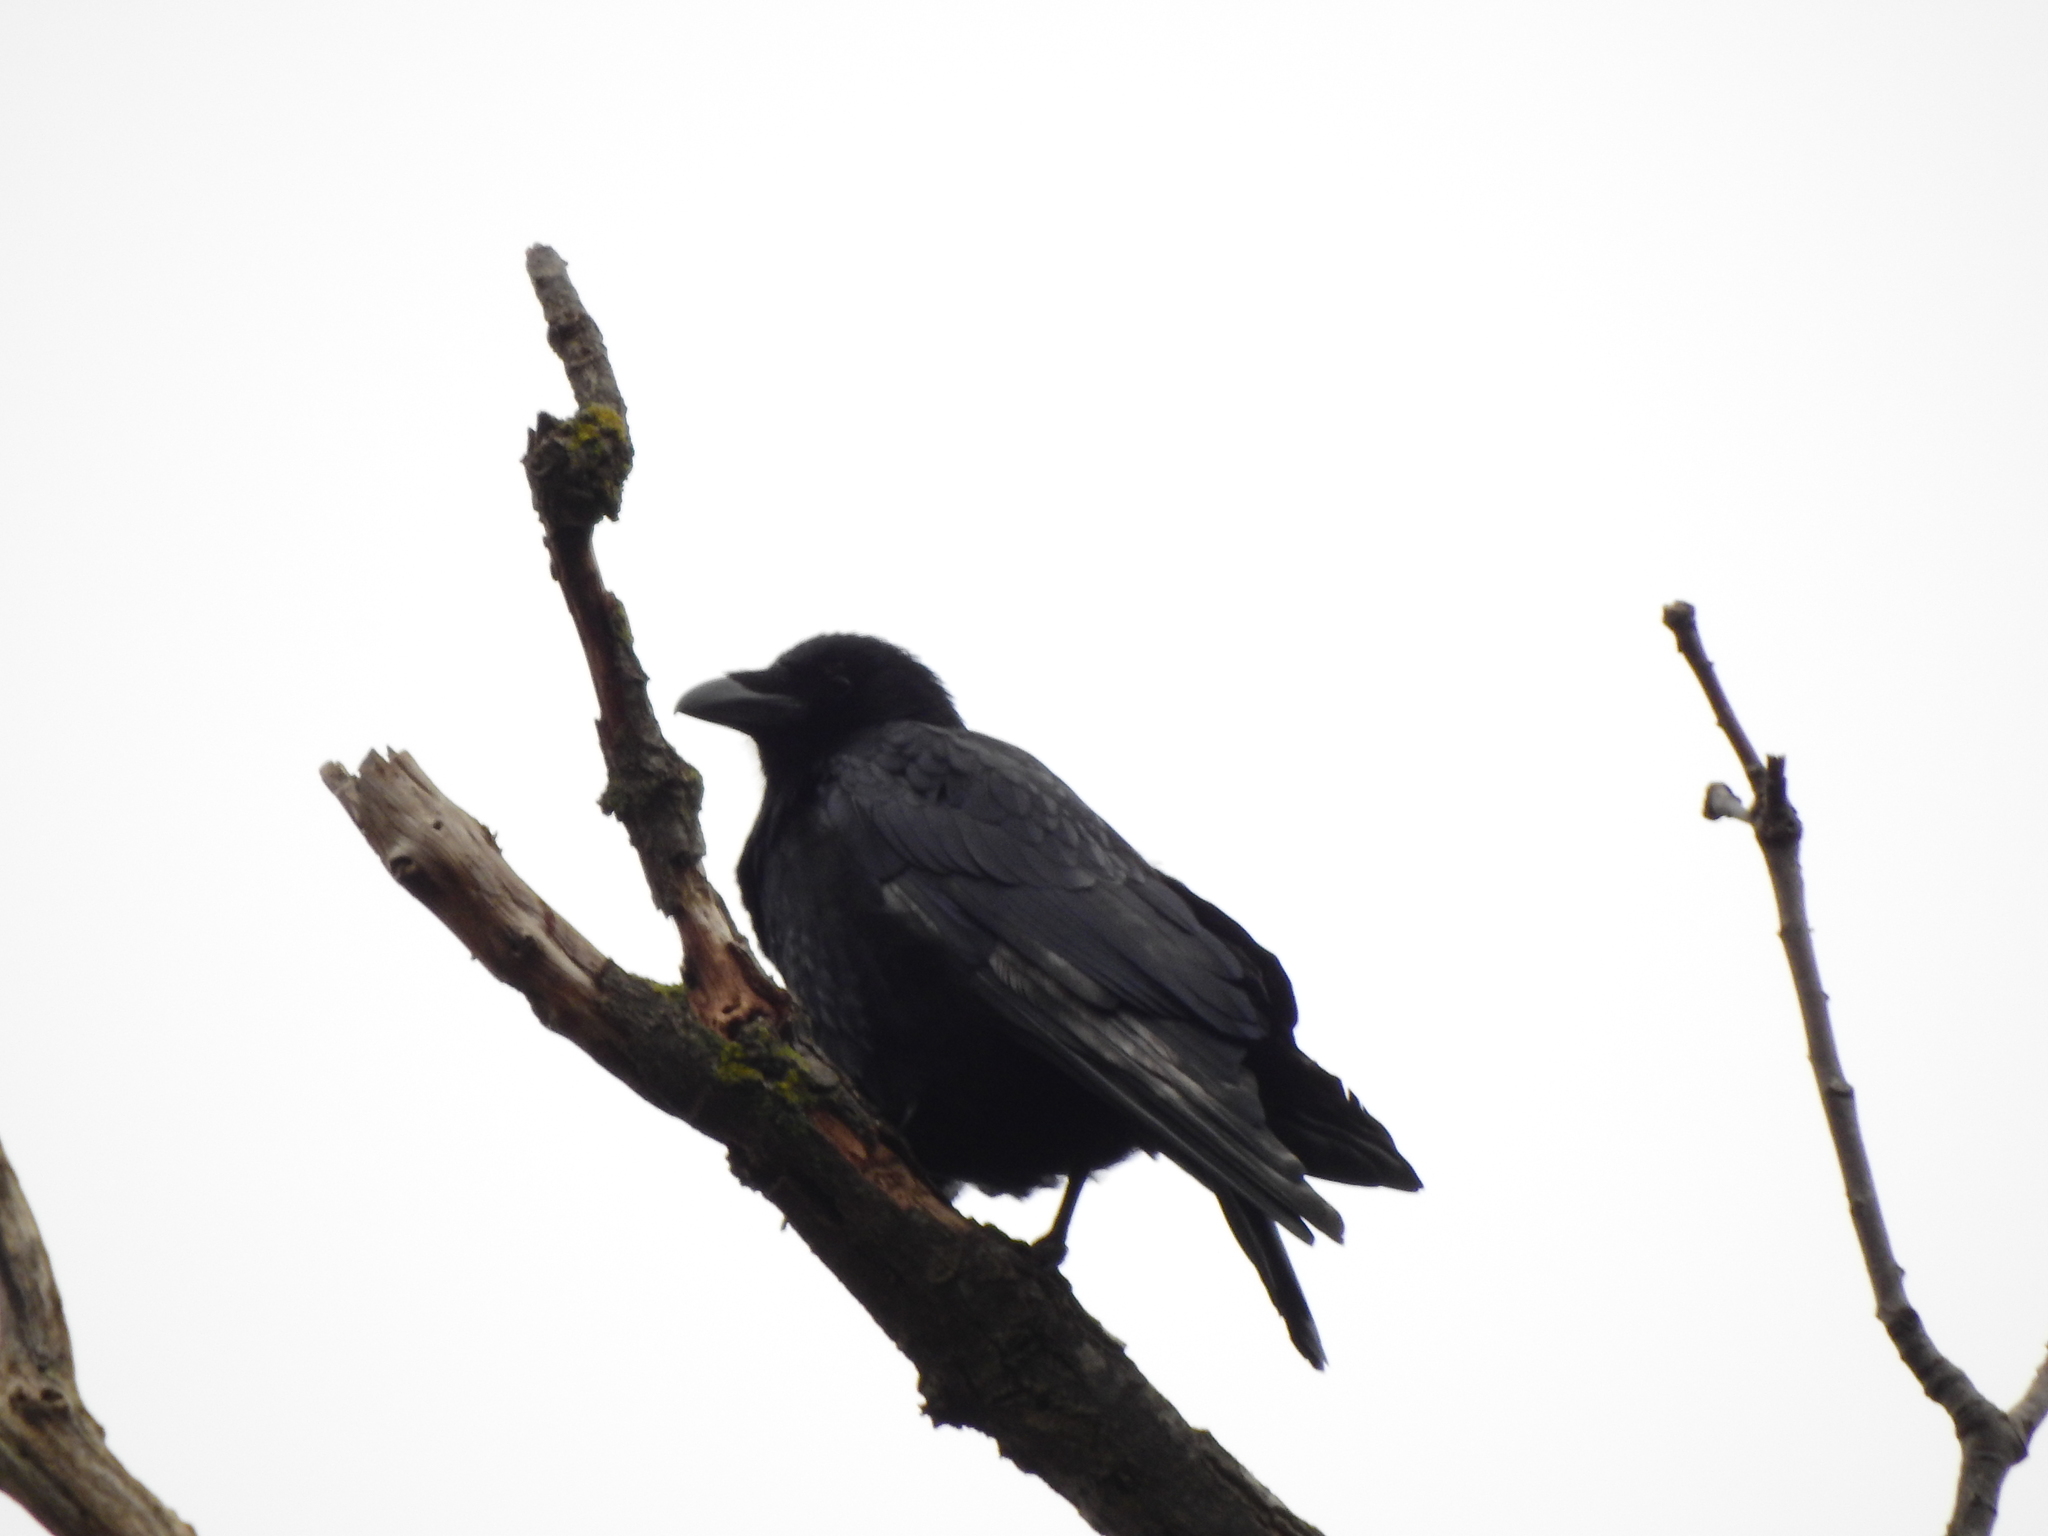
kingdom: Animalia
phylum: Chordata
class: Aves
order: Passeriformes
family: Corvidae
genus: Corvus
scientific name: Corvus corone
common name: Carrion crow
